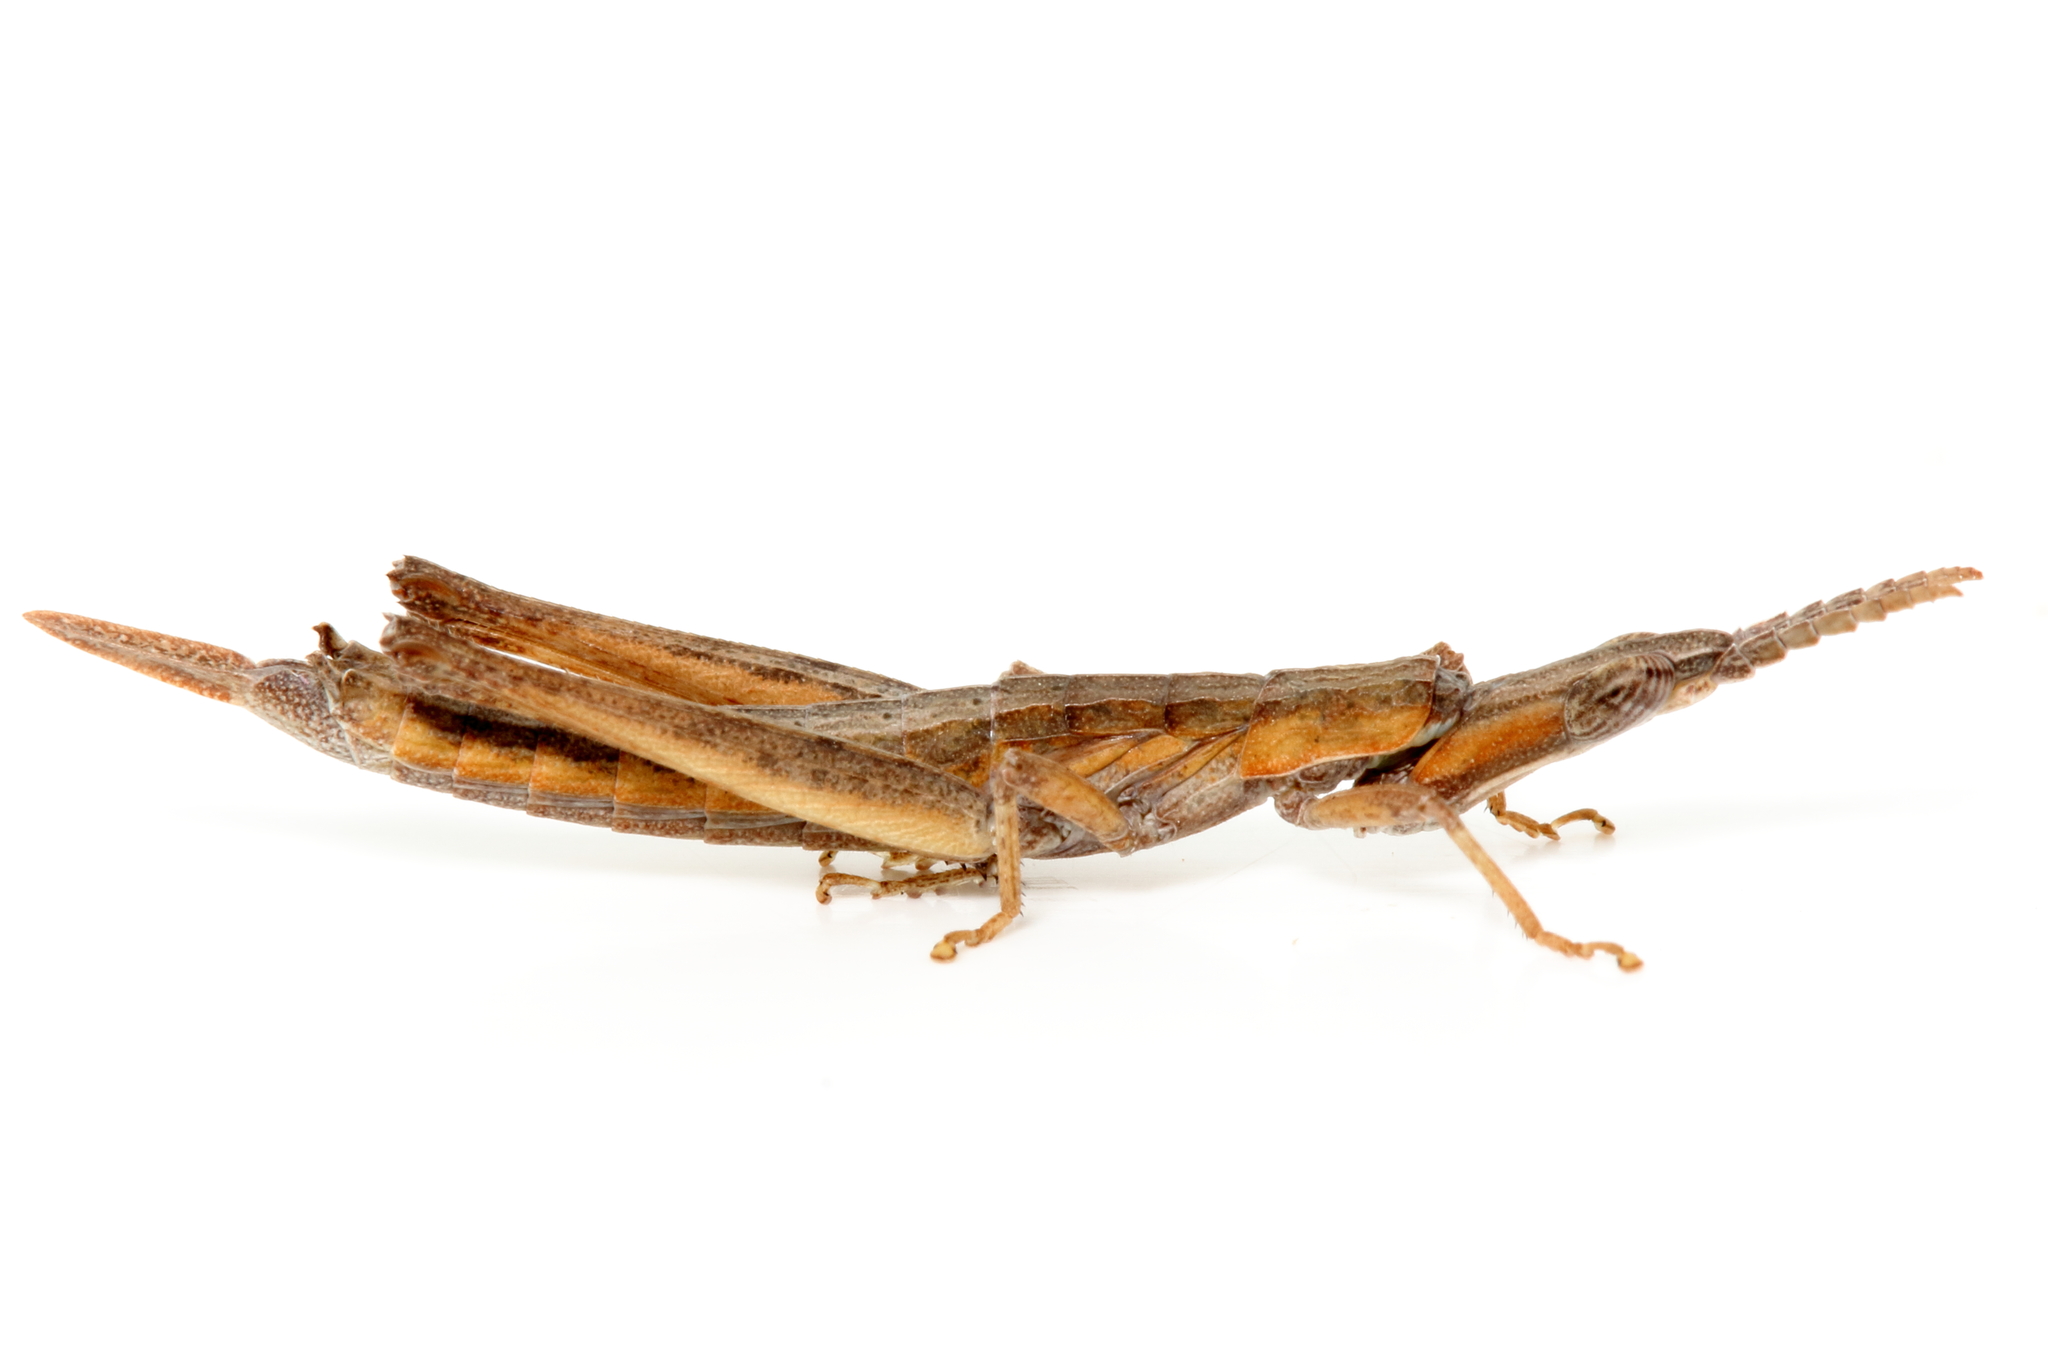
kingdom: Animalia
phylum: Arthropoda
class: Insecta
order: Orthoptera
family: Morabidae
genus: Vandiemenella
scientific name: Vandiemenella viatica
